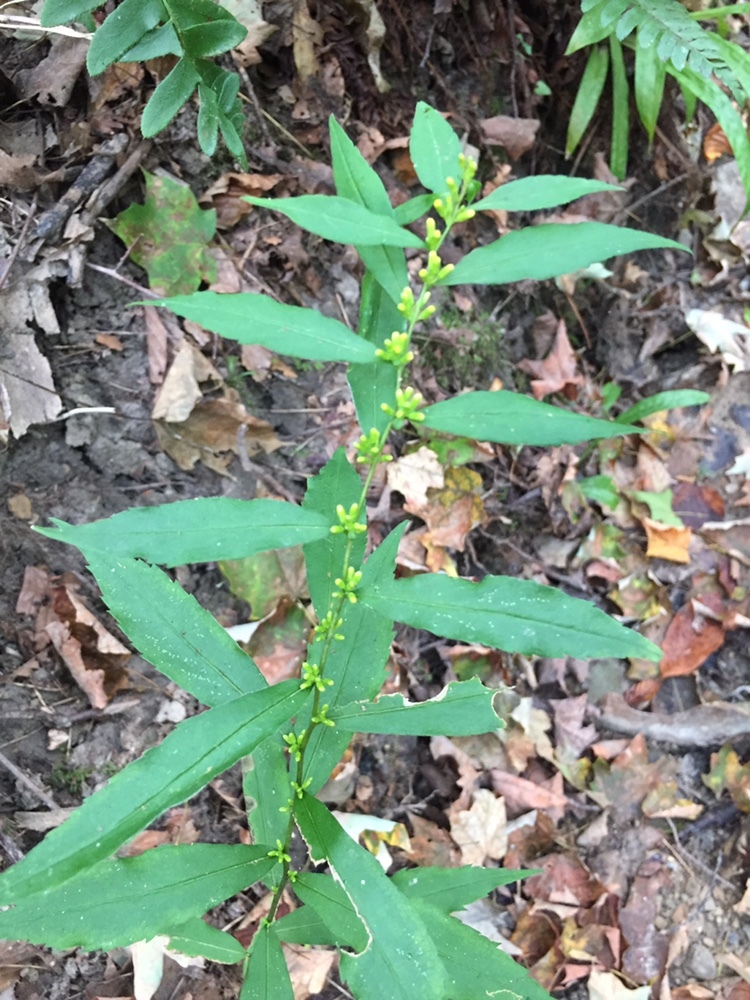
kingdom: Plantae
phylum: Tracheophyta
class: Magnoliopsida
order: Asterales
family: Asteraceae
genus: Solidago
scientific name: Solidago caesia
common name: Woodland goldenrod
